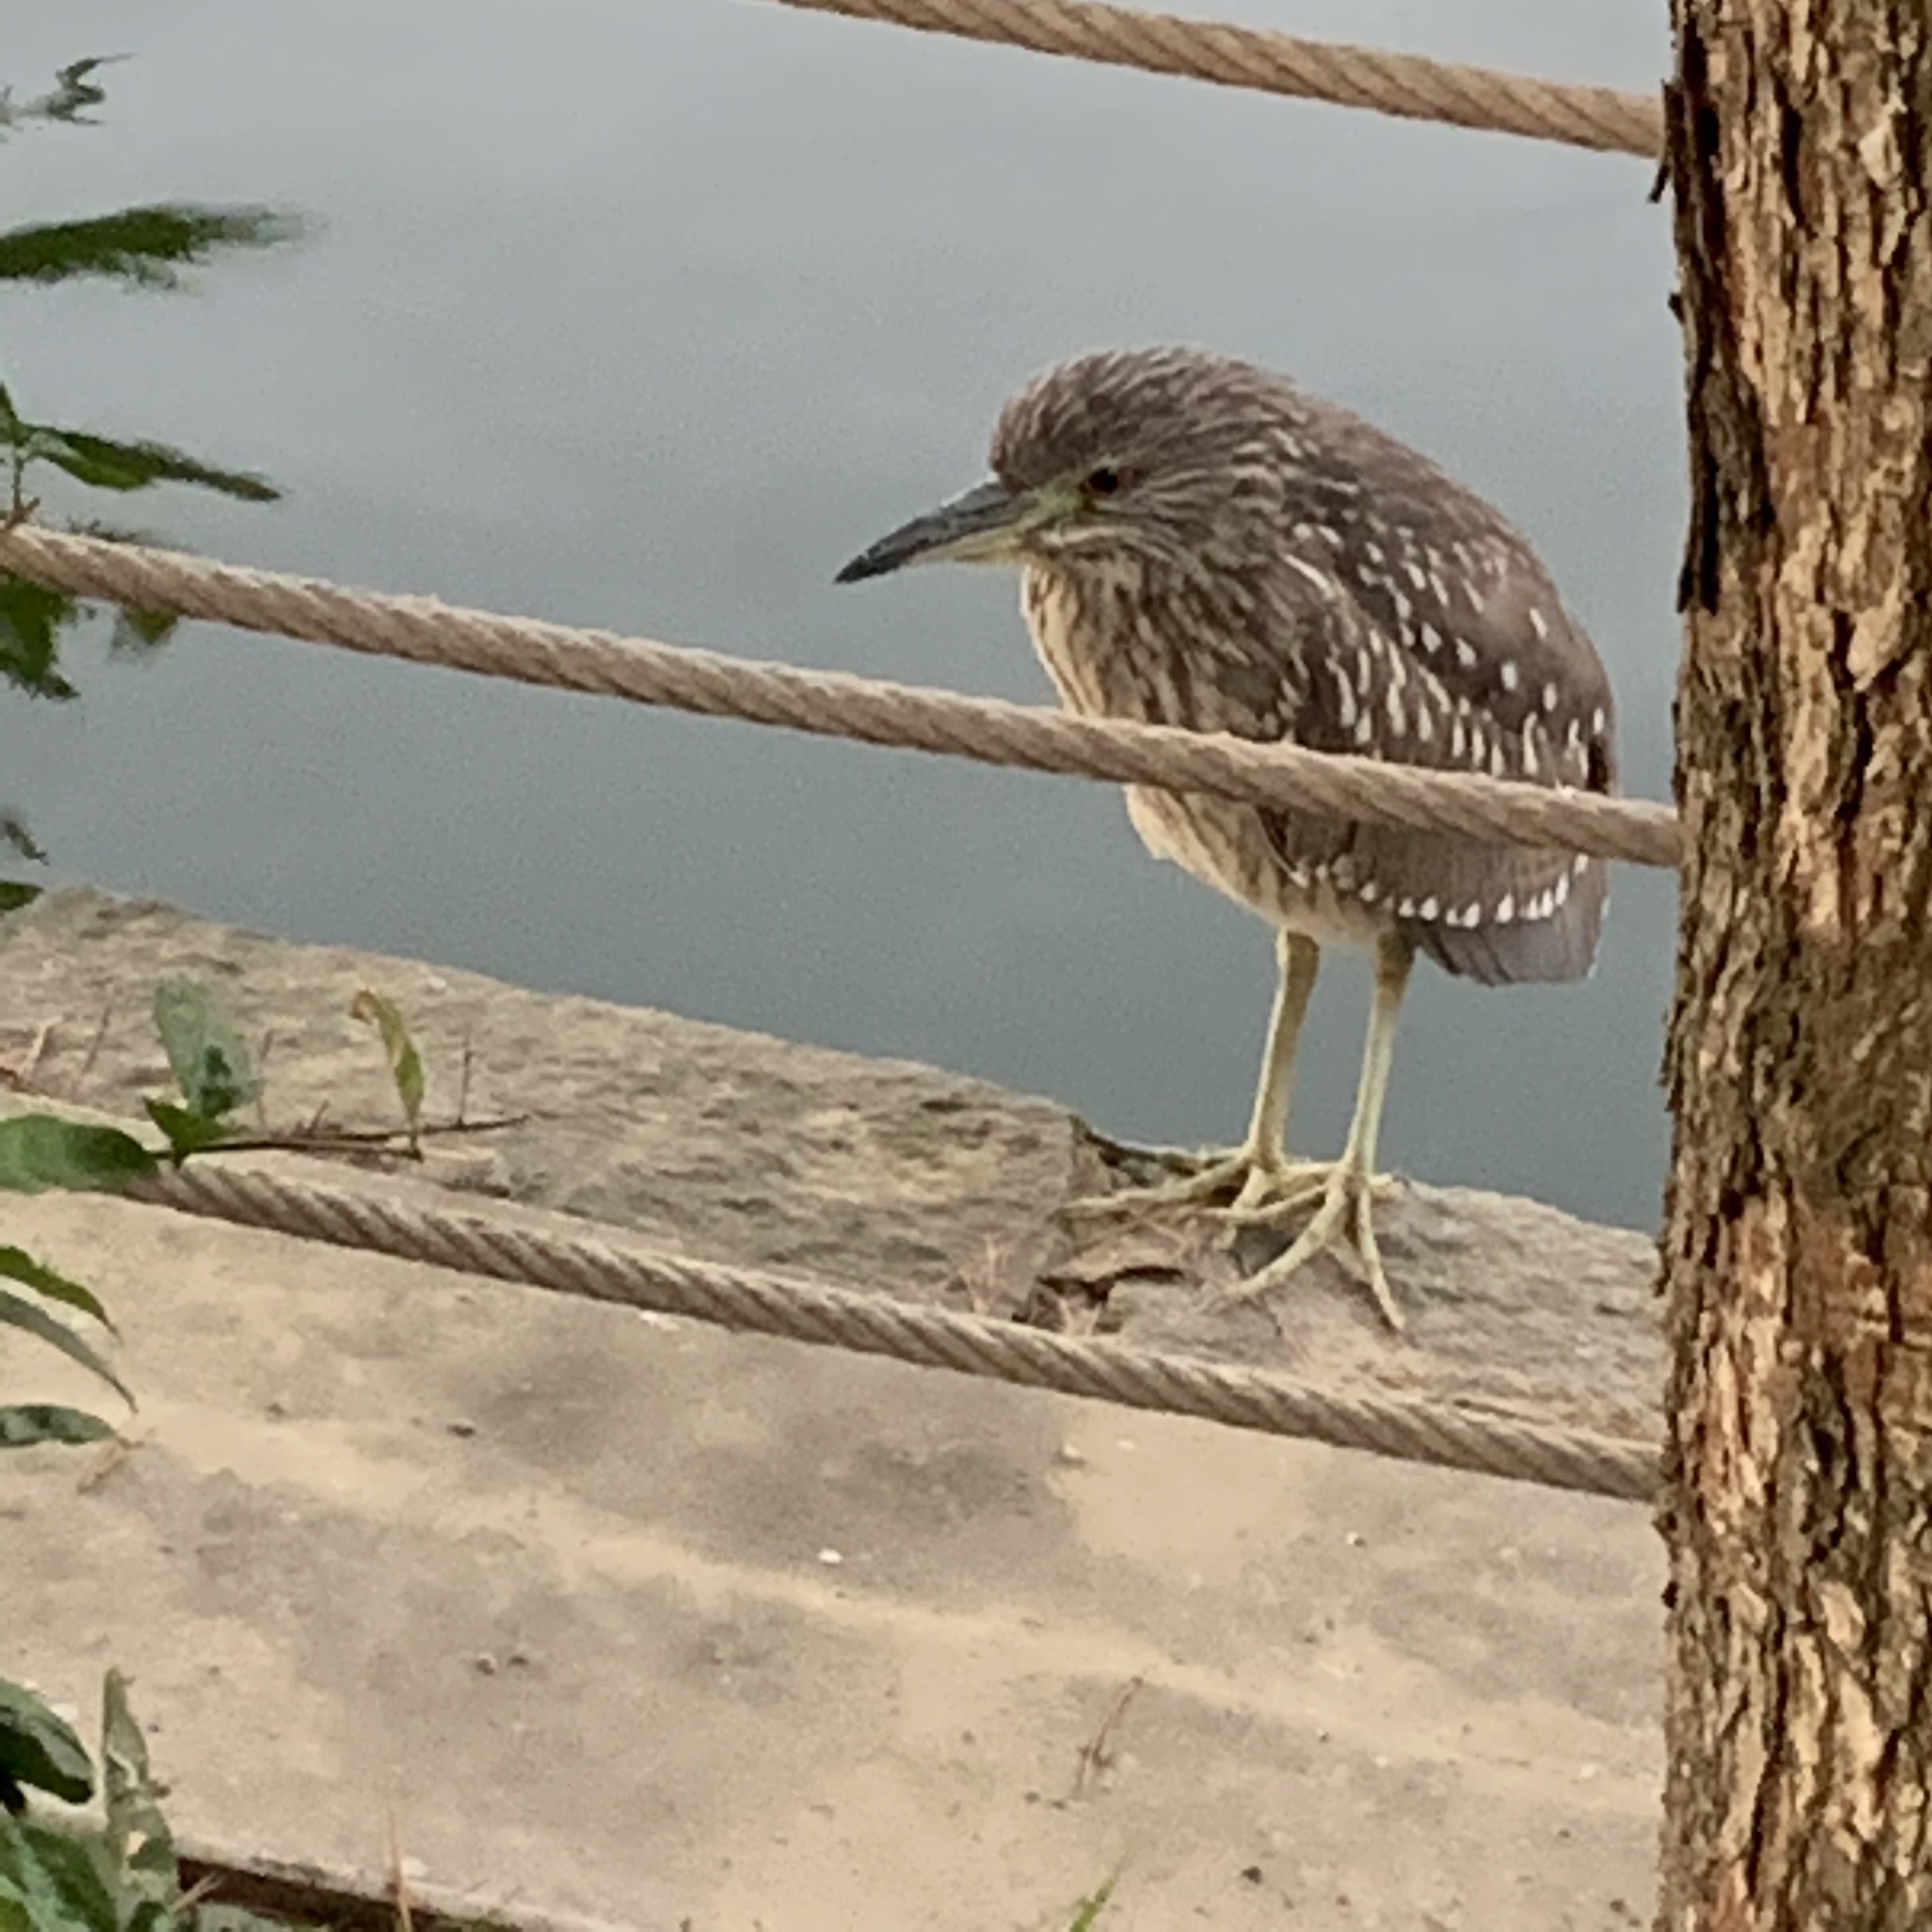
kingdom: Animalia
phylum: Chordata
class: Aves
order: Pelecaniformes
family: Ardeidae
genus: Nycticorax
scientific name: Nycticorax nycticorax
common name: Black-crowned night heron
